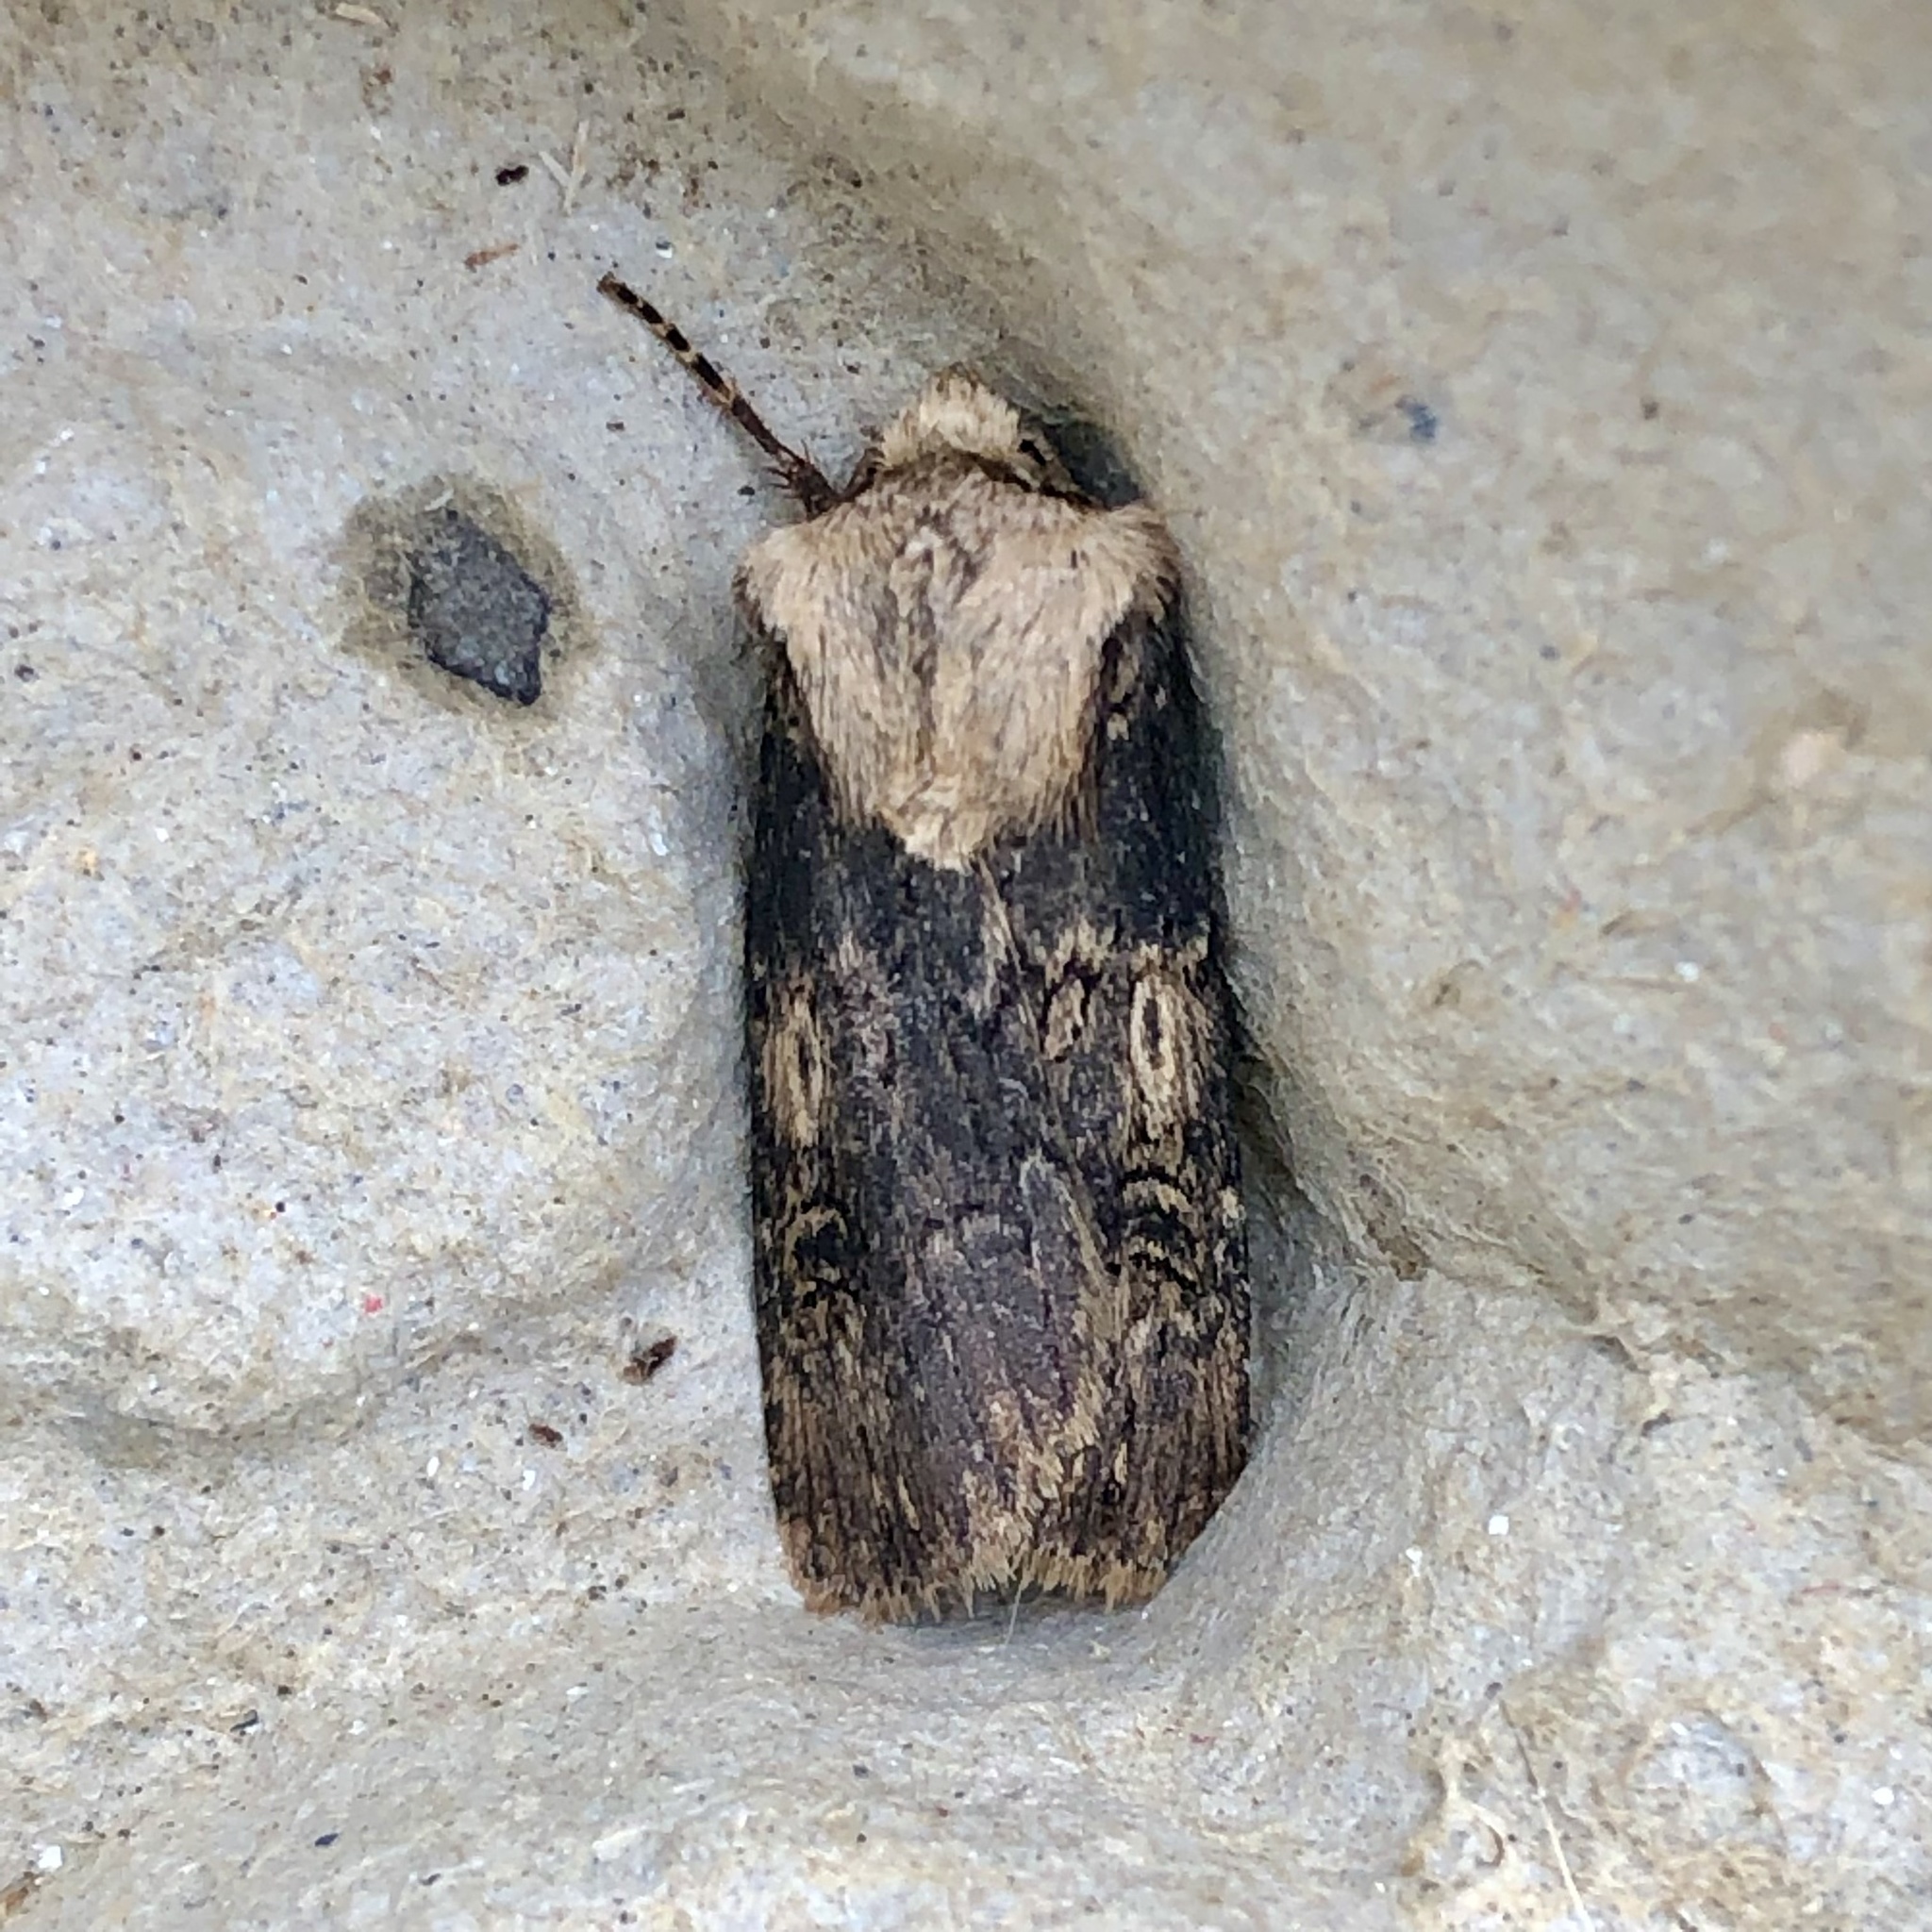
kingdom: Animalia
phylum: Arthropoda
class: Insecta
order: Lepidoptera
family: Noctuidae
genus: Agrotis
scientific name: Agrotis puta
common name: Shuttle-shaped dart
